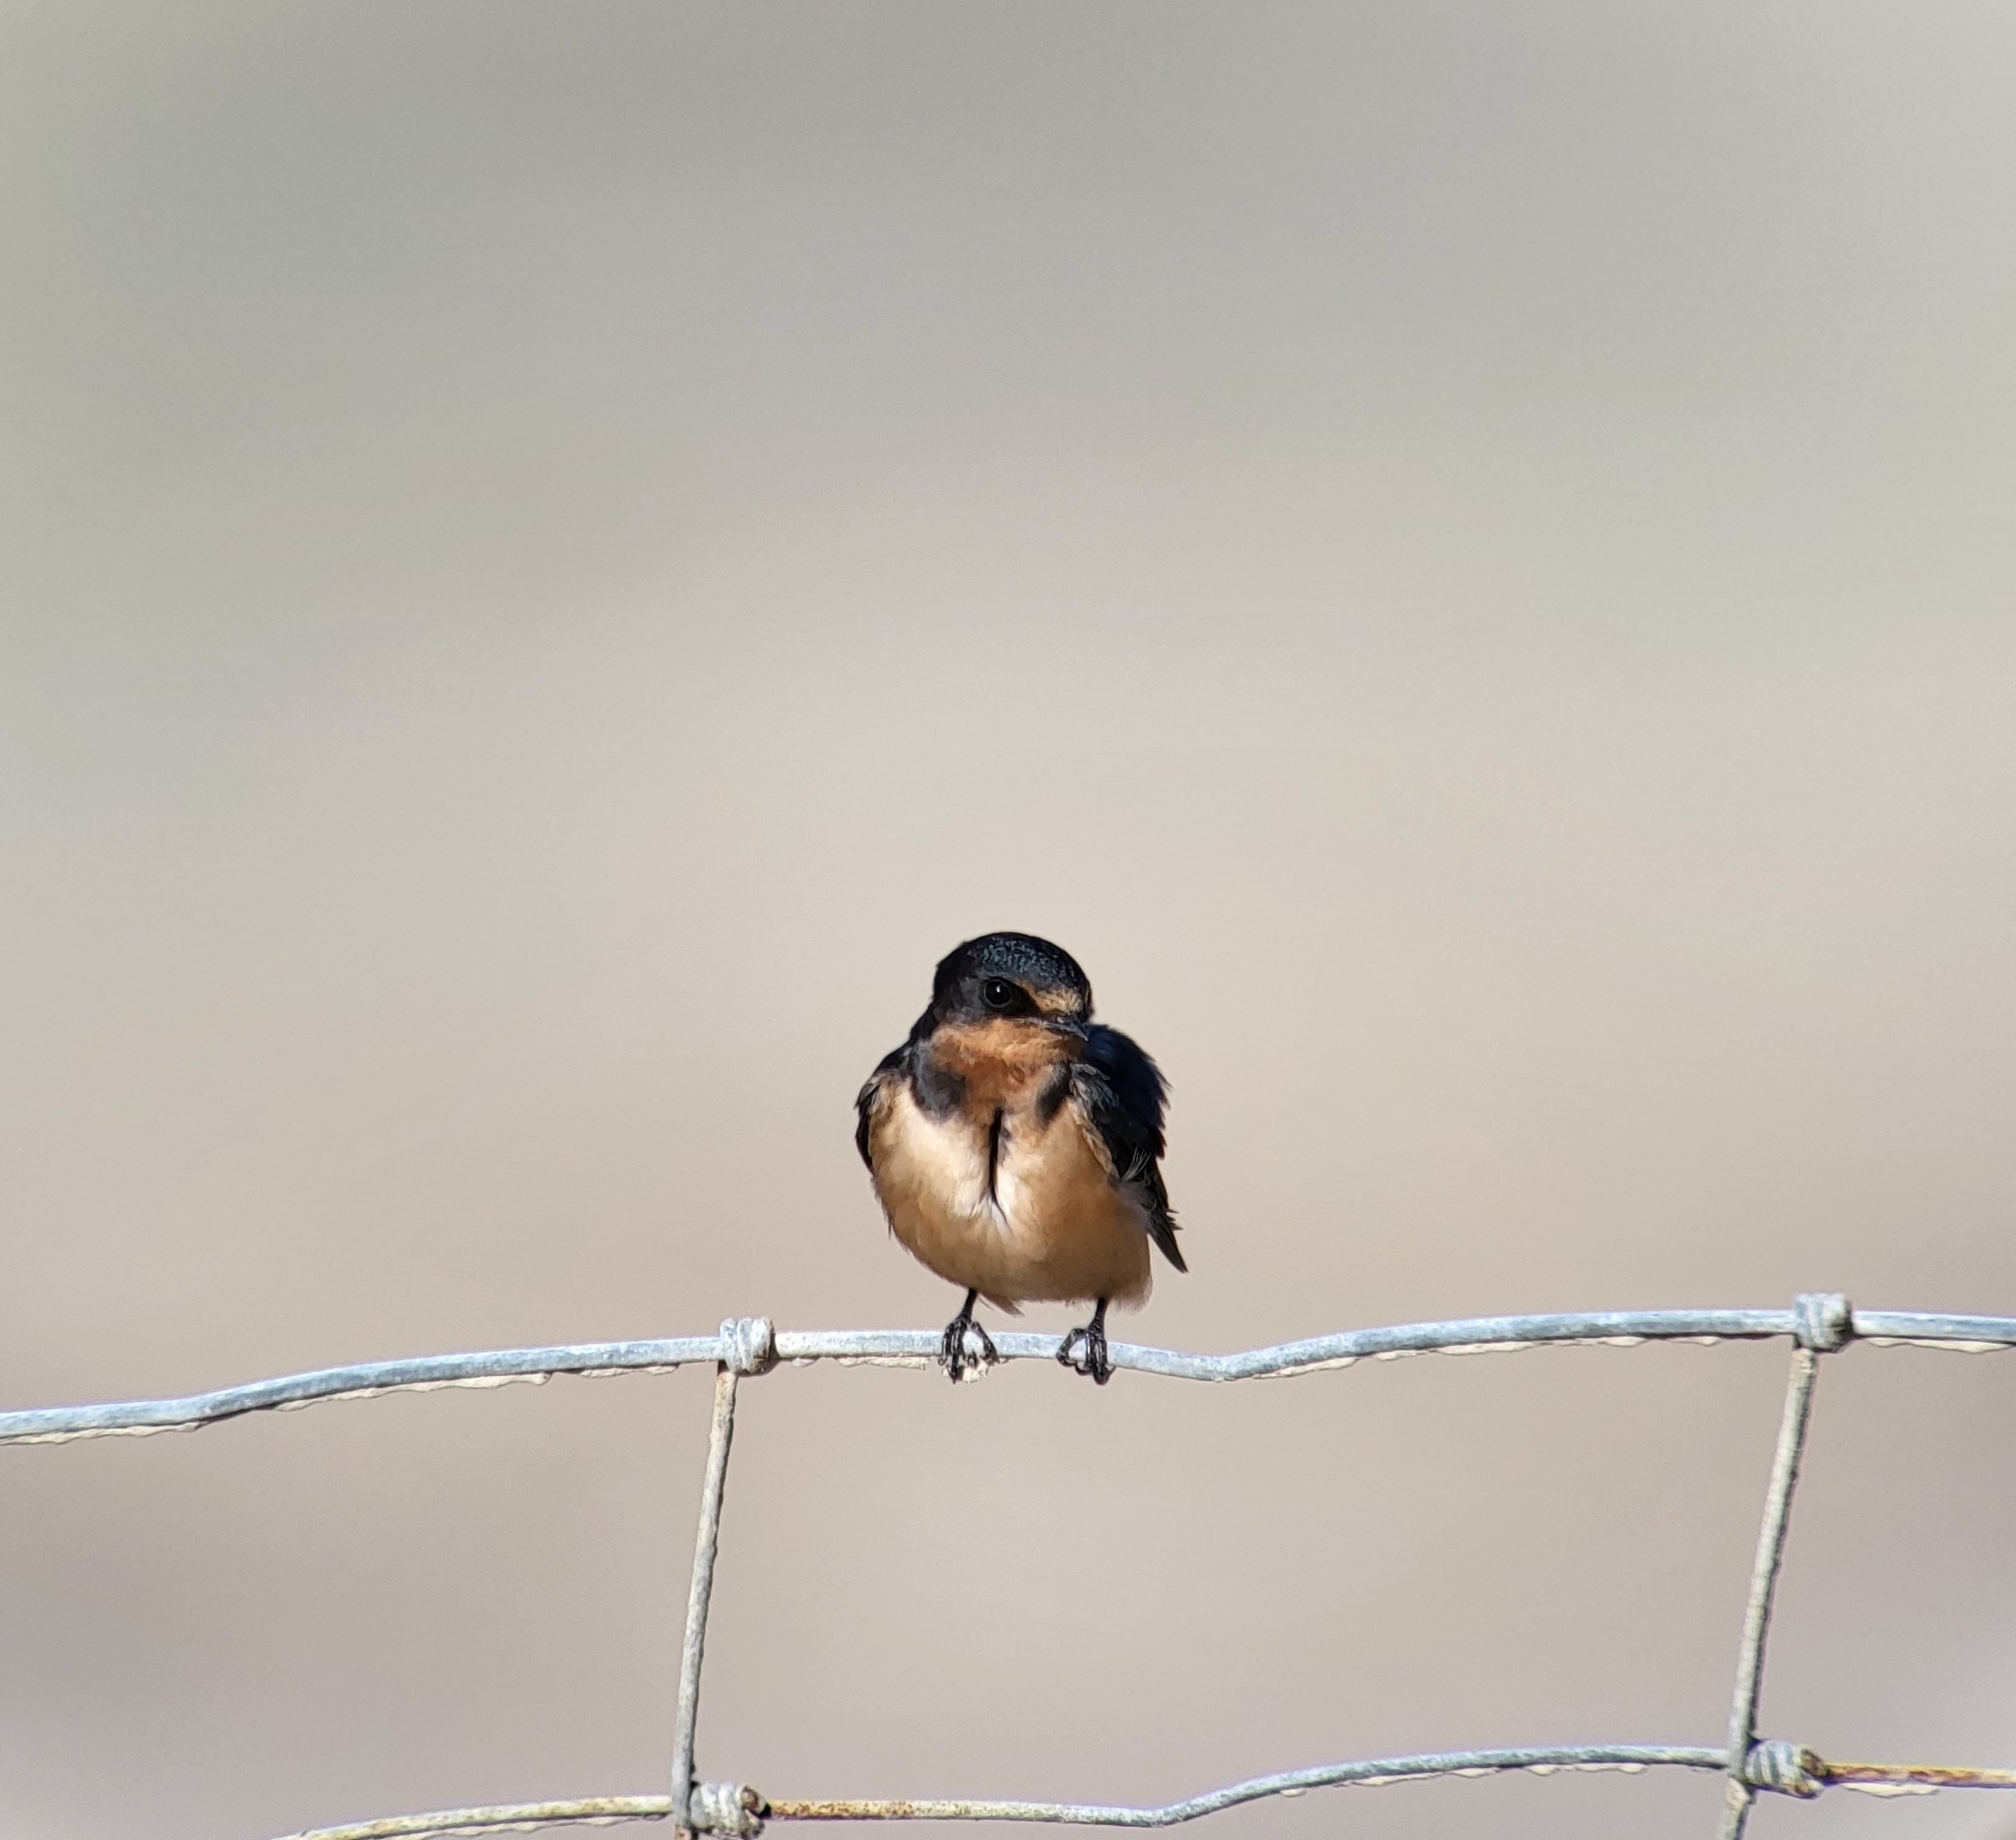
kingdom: Animalia
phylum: Chordata
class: Aves
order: Passeriformes
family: Hirundinidae
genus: Hirundo
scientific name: Hirundo rustica
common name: Barn swallow
